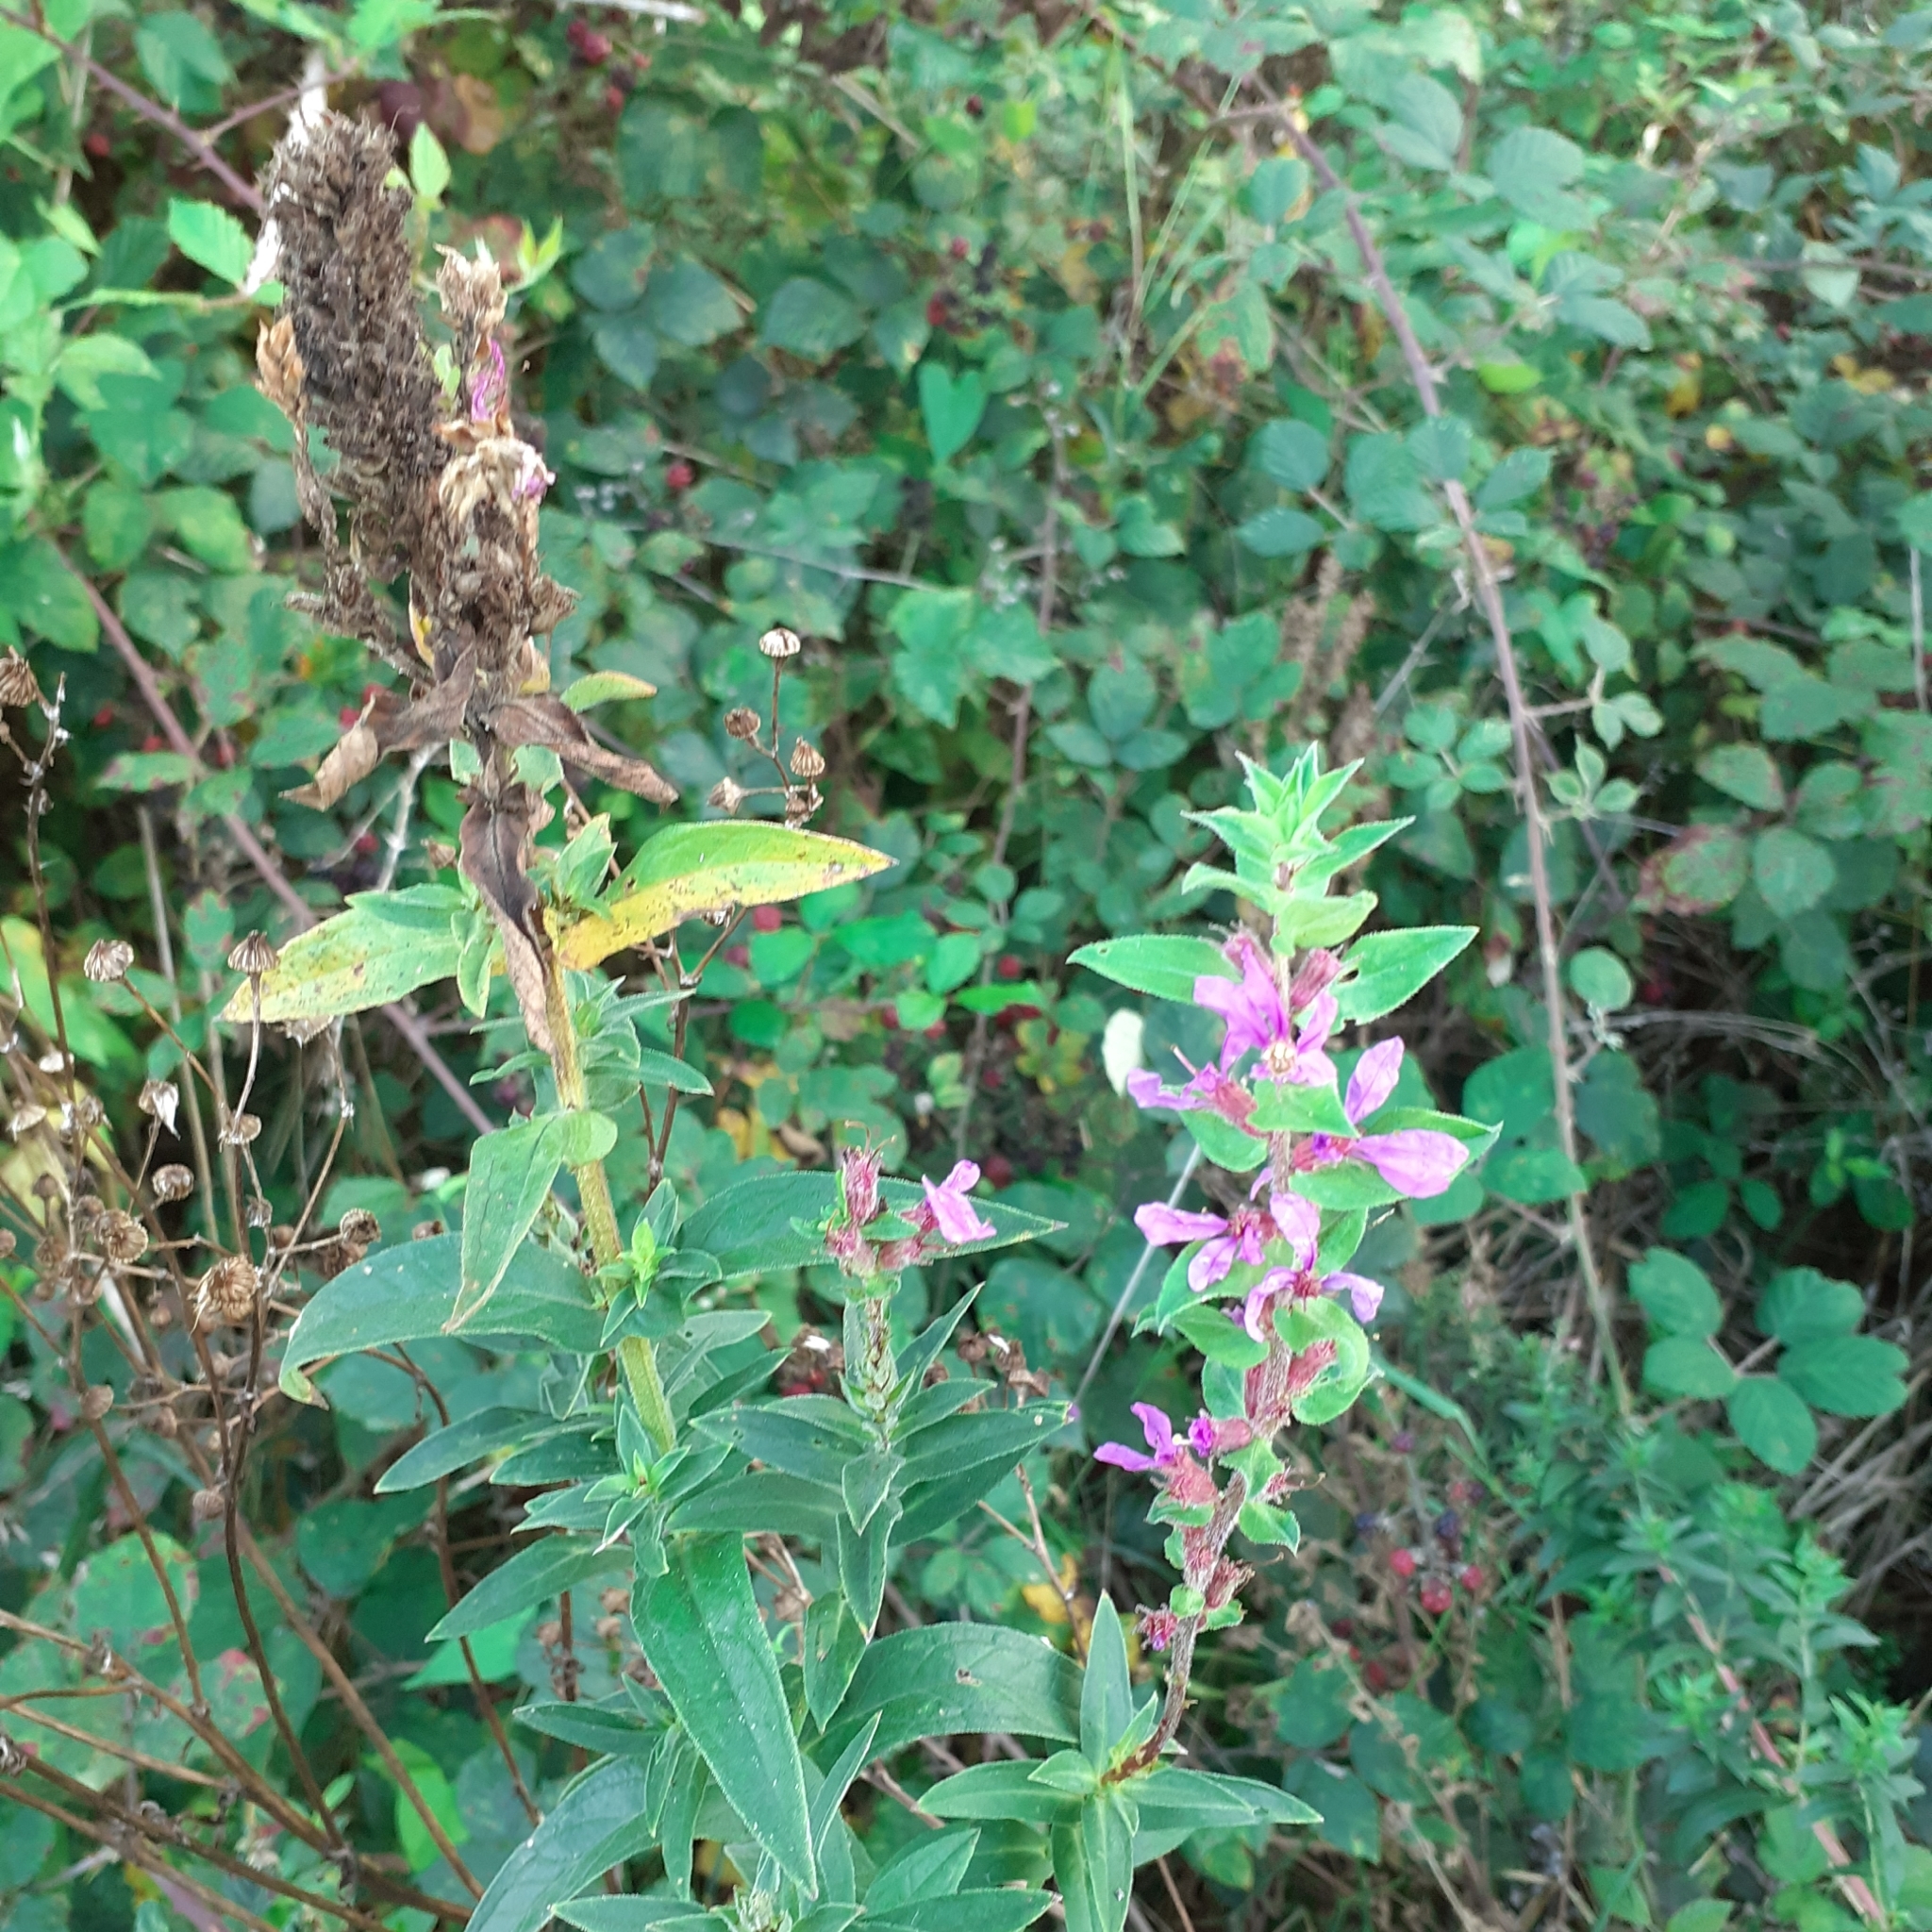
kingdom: Plantae
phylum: Tracheophyta
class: Magnoliopsida
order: Myrtales
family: Lythraceae
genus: Lythrum
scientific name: Lythrum salicaria
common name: Purple loosestrife
